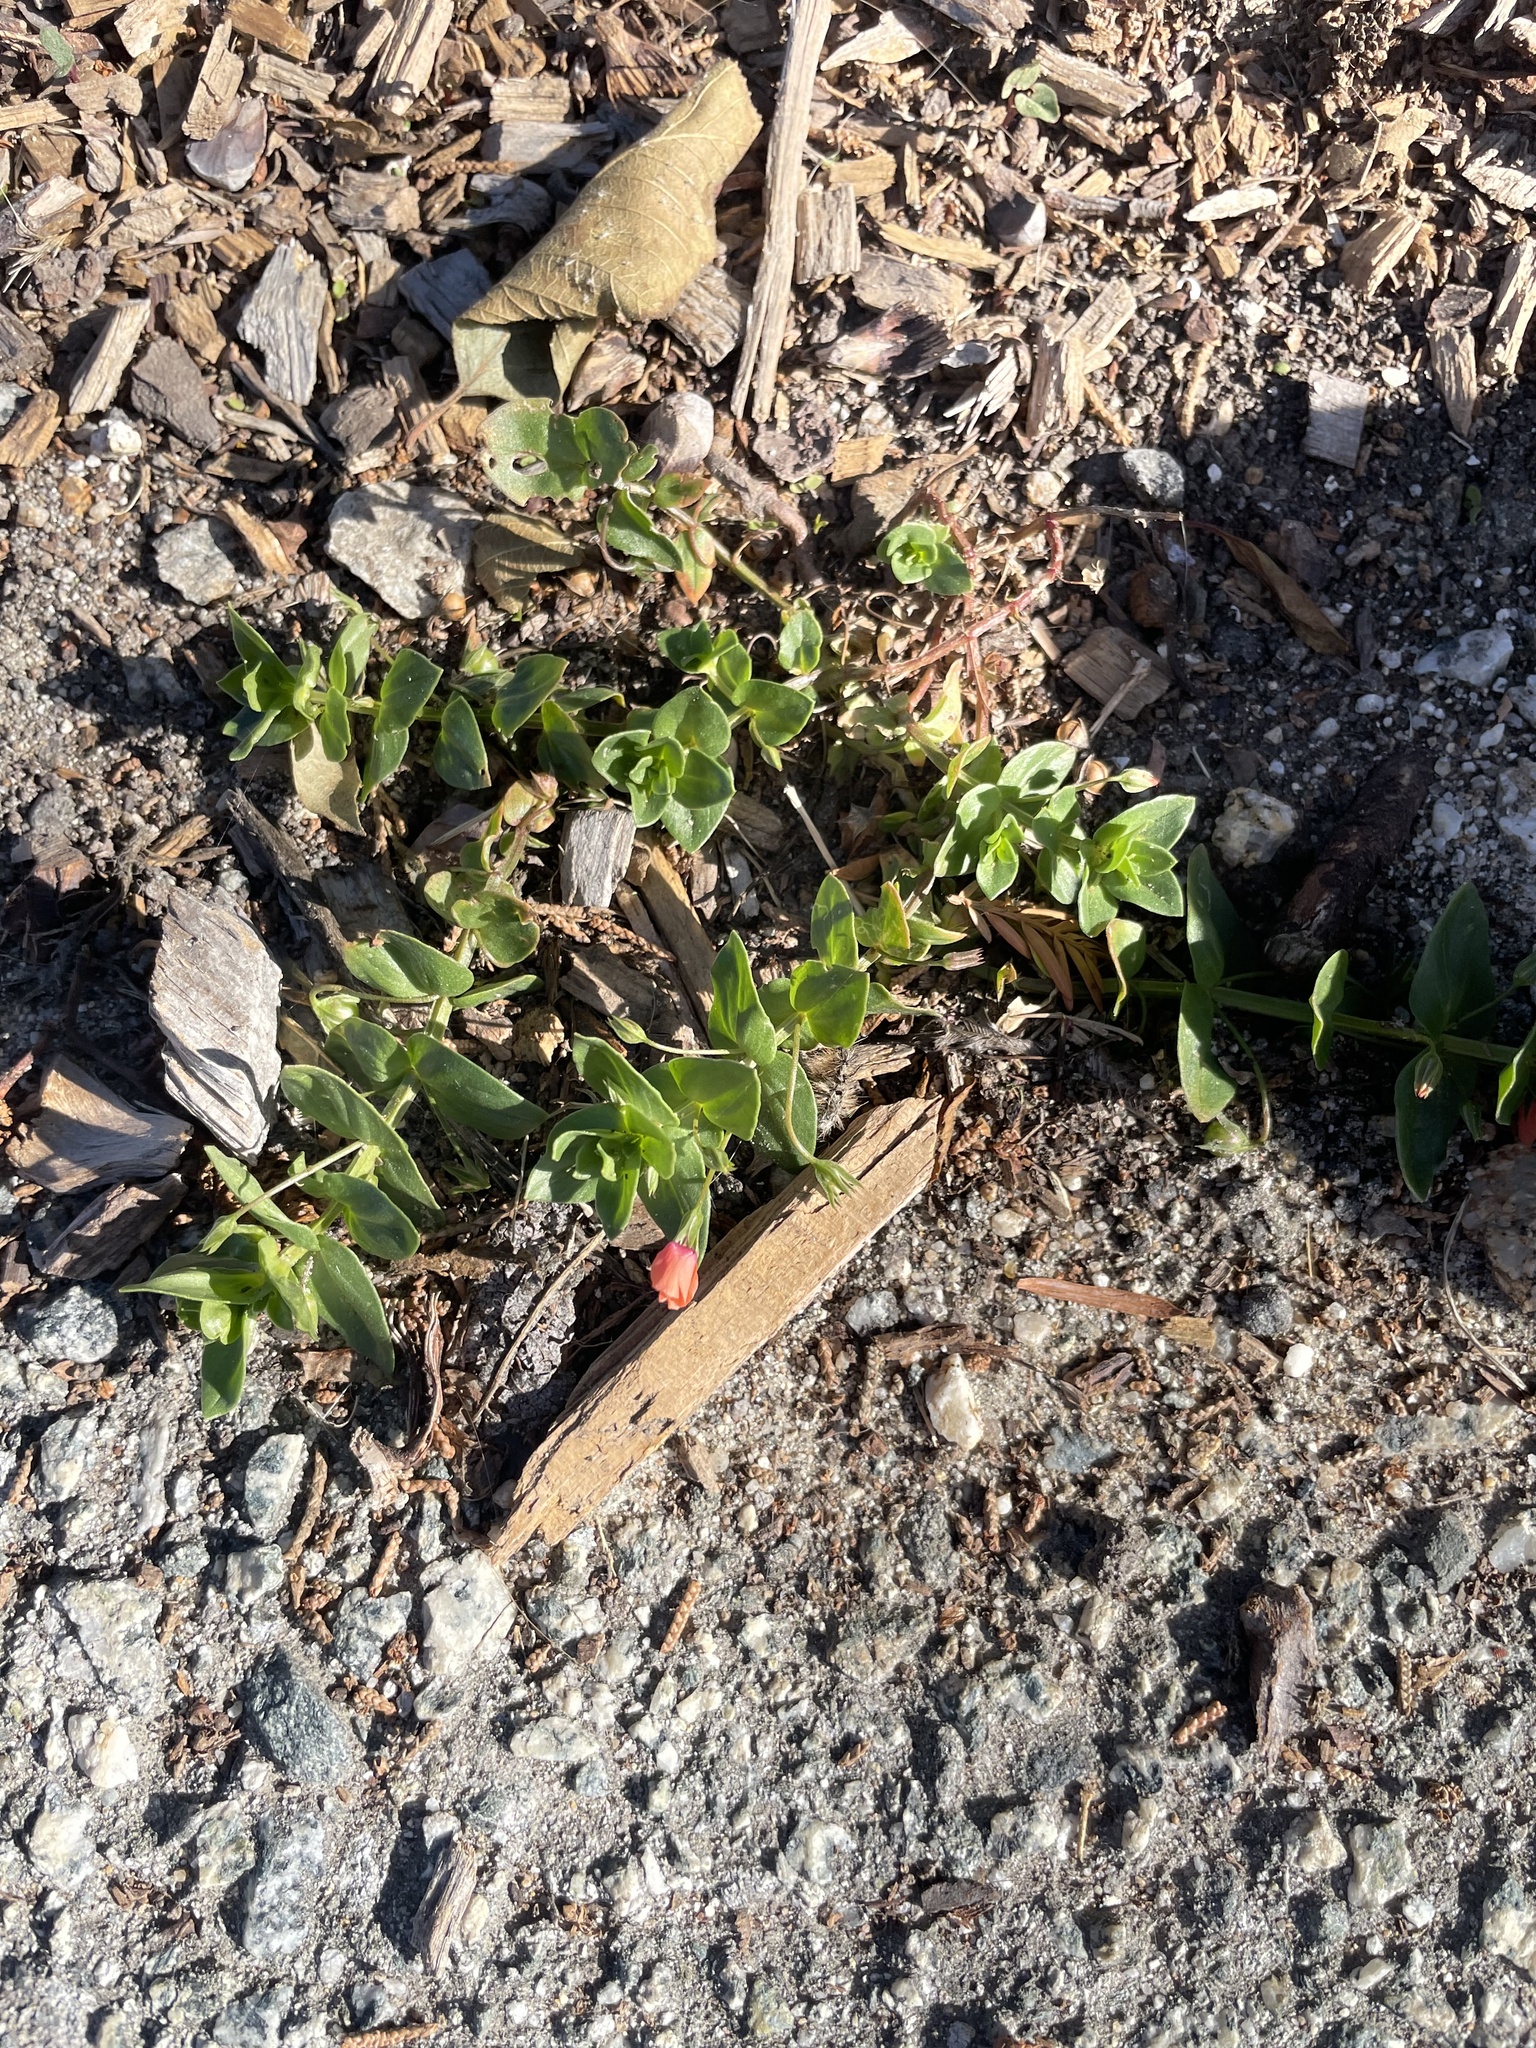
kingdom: Plantae
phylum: Tracheophyta
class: Magnoliopsida
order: Ericales
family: Primulaceae
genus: Lysimachia
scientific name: Lysimachia arvensis
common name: Scarlet pimpernel
